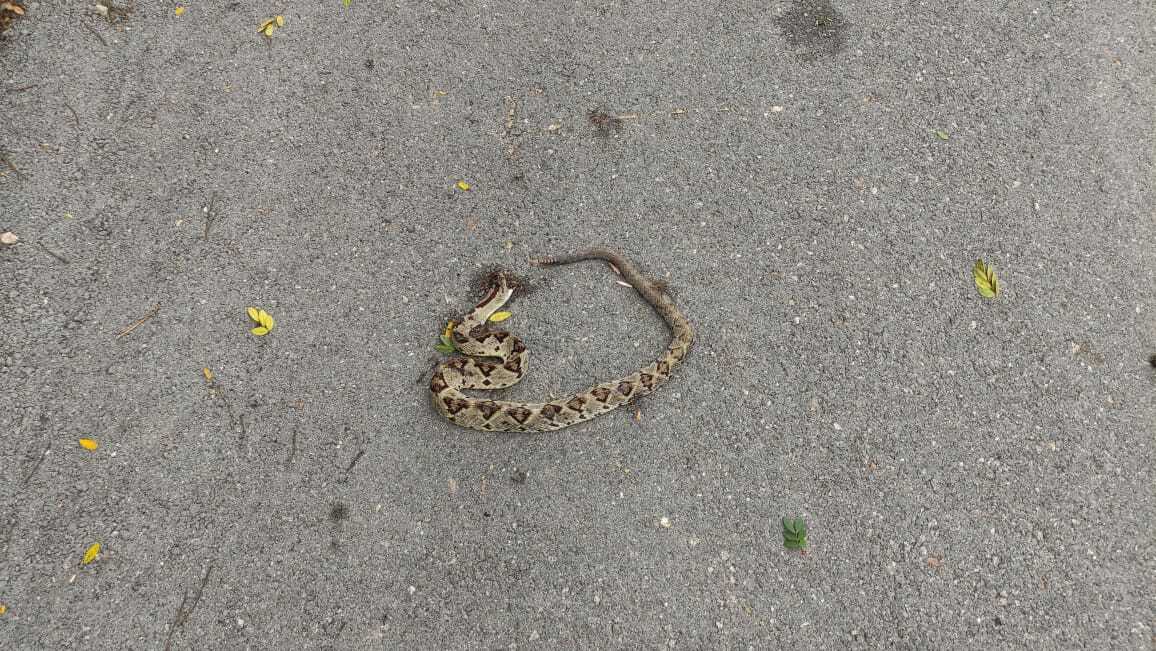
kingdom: Animalia
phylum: Chordata
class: Squamata
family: Viperidae
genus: Crotalus
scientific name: Crotalus tzabcan
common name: Yucatan neotropical rattlesnake
